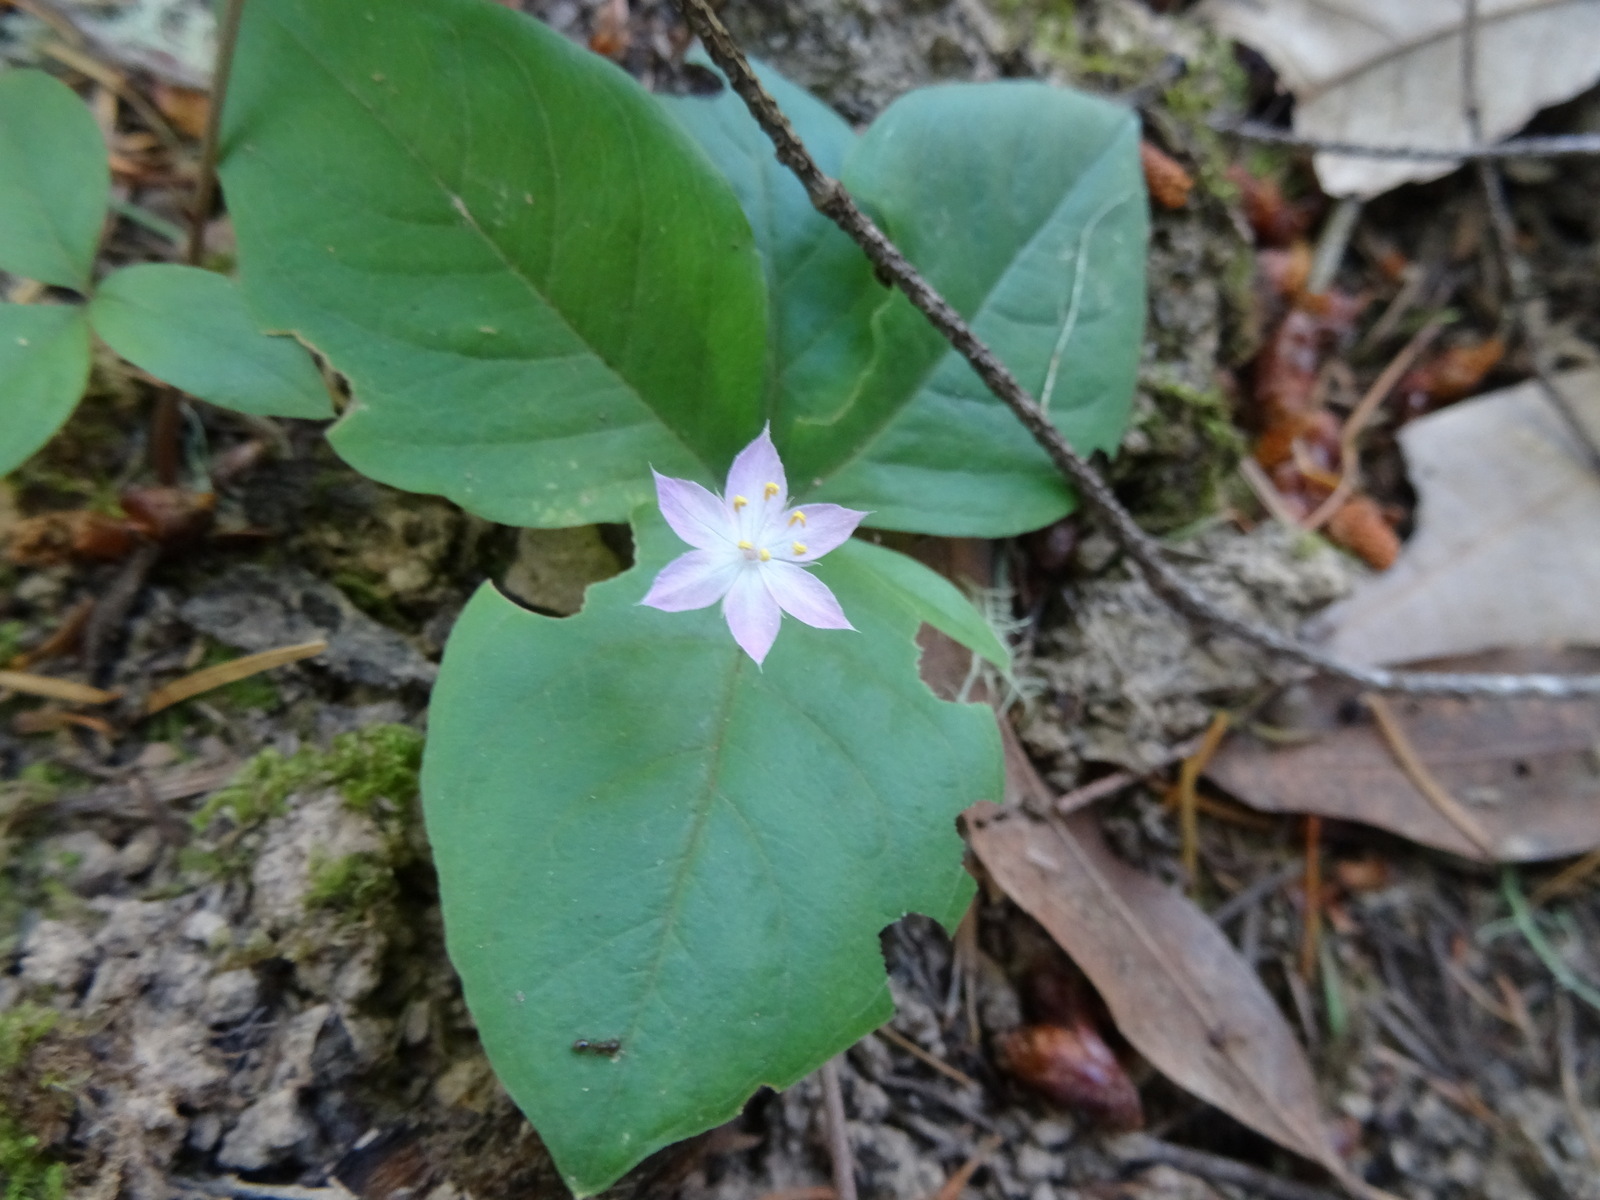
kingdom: Plantae
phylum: Tracheophyta
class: Magnoliopsida
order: Ericales
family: Primulaceae
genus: Lysimachia
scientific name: Lysimachia latifolia
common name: Pacific starflower
